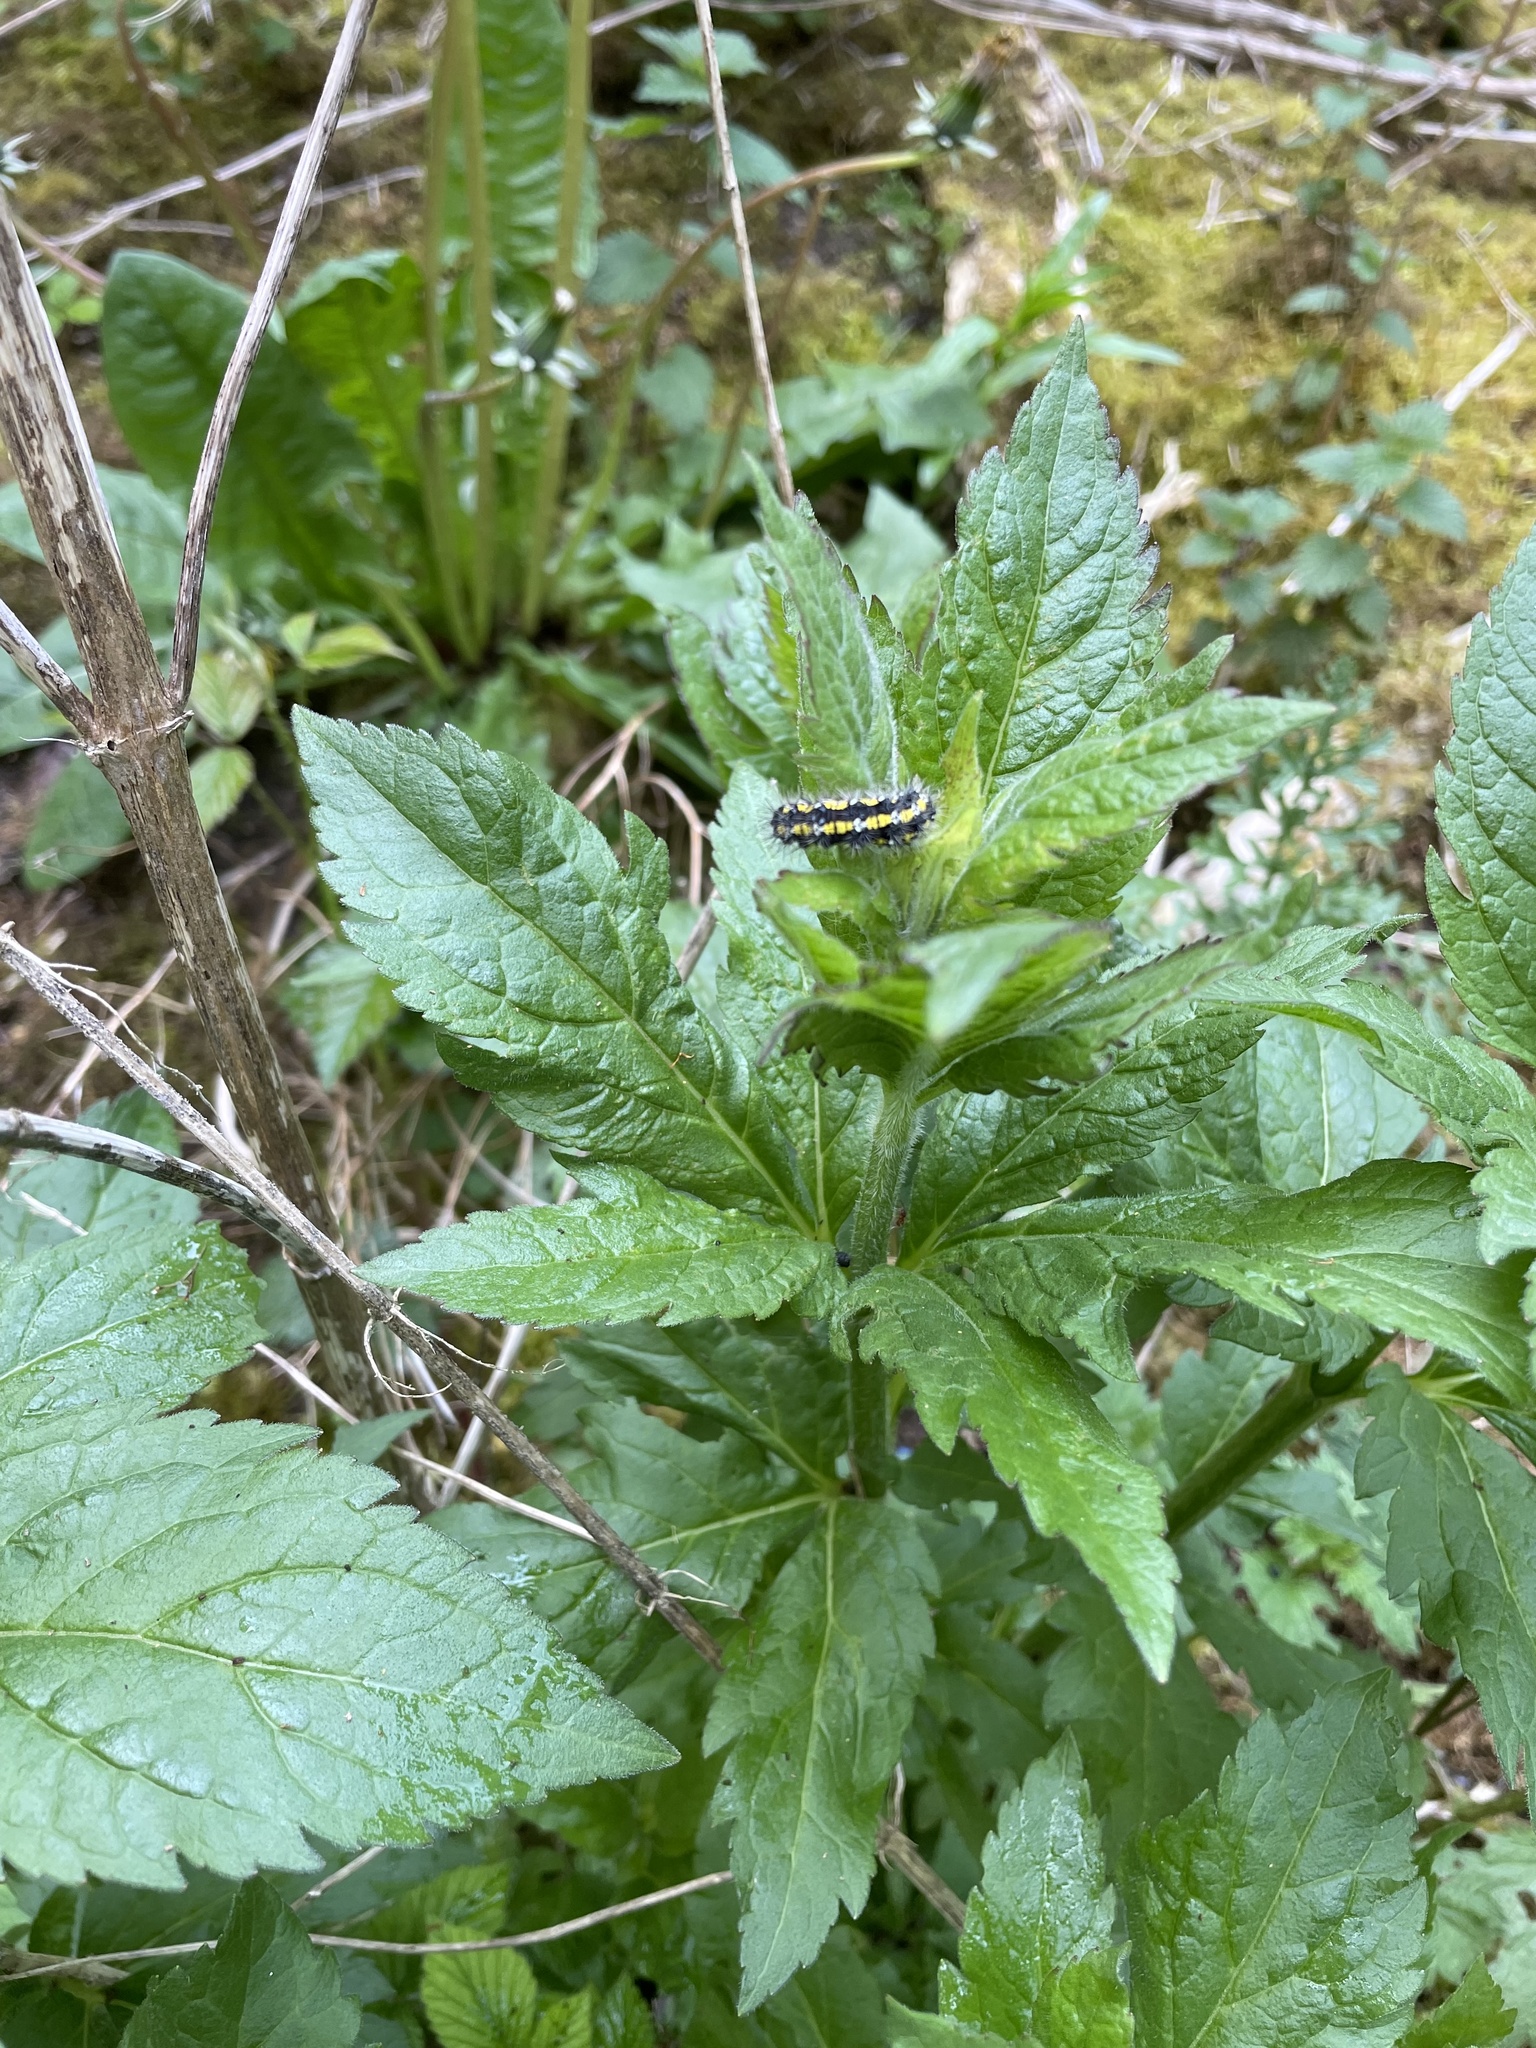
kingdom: Animalia
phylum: Arthropoda
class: Insecta
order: Lepidoptera
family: Erebidae
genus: Callimorpha
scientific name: Callimorpha dominula
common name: Scarlet tiger
